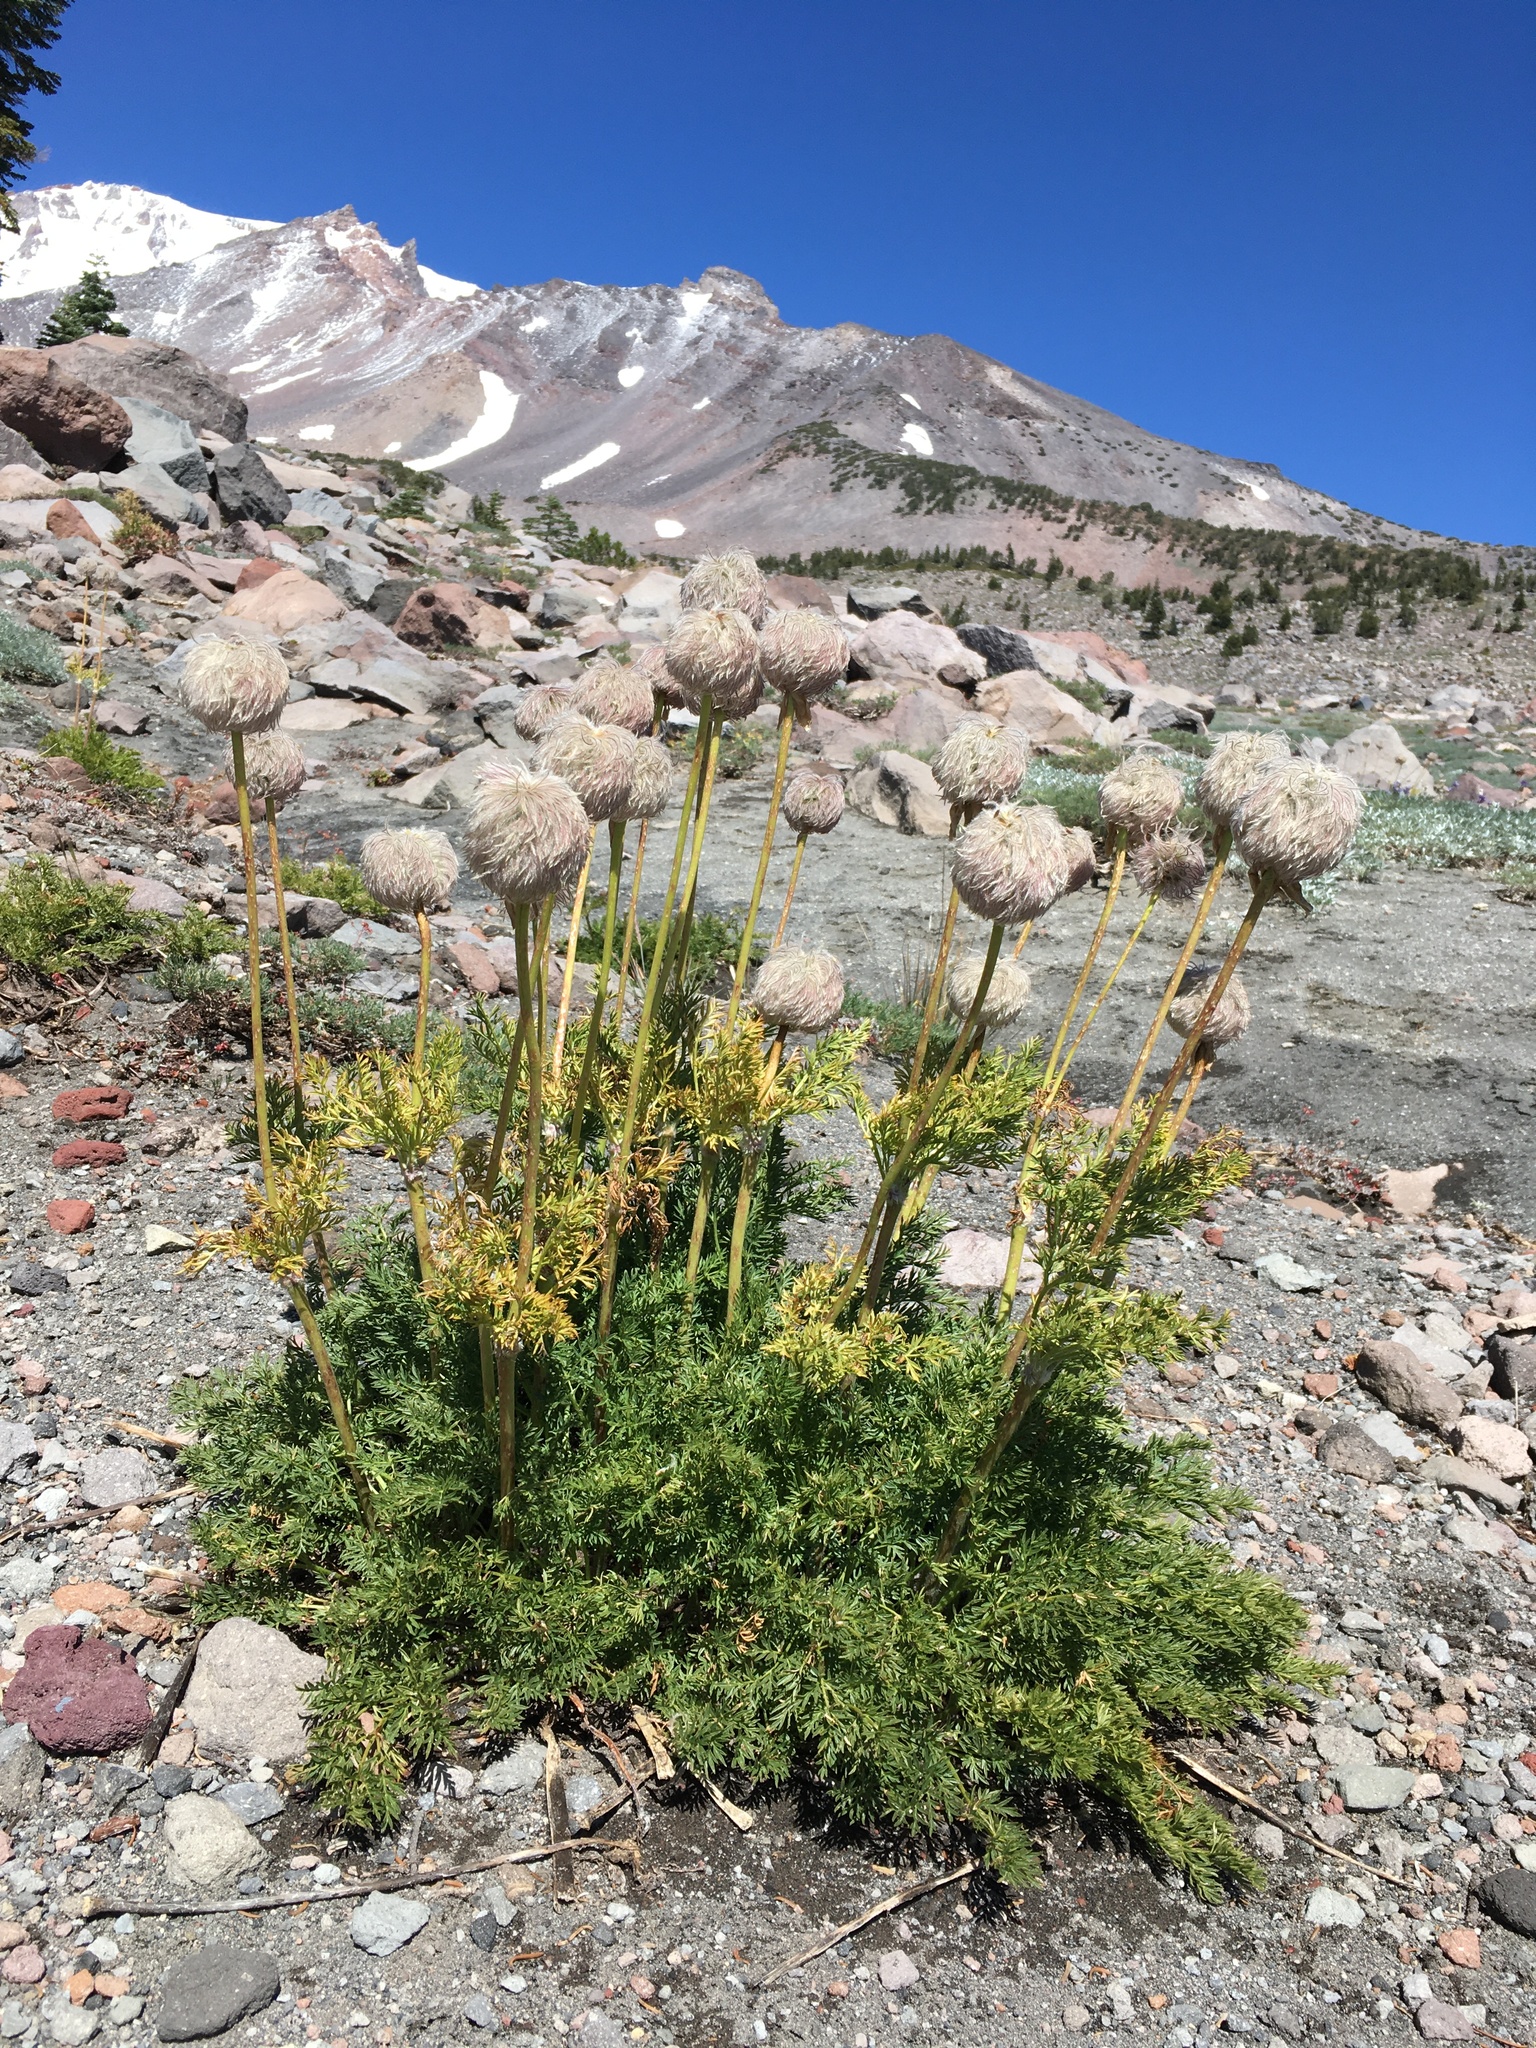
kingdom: Plantae
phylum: Tracheophyta
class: Magnoliopsida
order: Ranunculales
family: Ranunculaceae
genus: Pulsatilla
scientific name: Pulsatilla occidentalis
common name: Mountain pasqueflower
